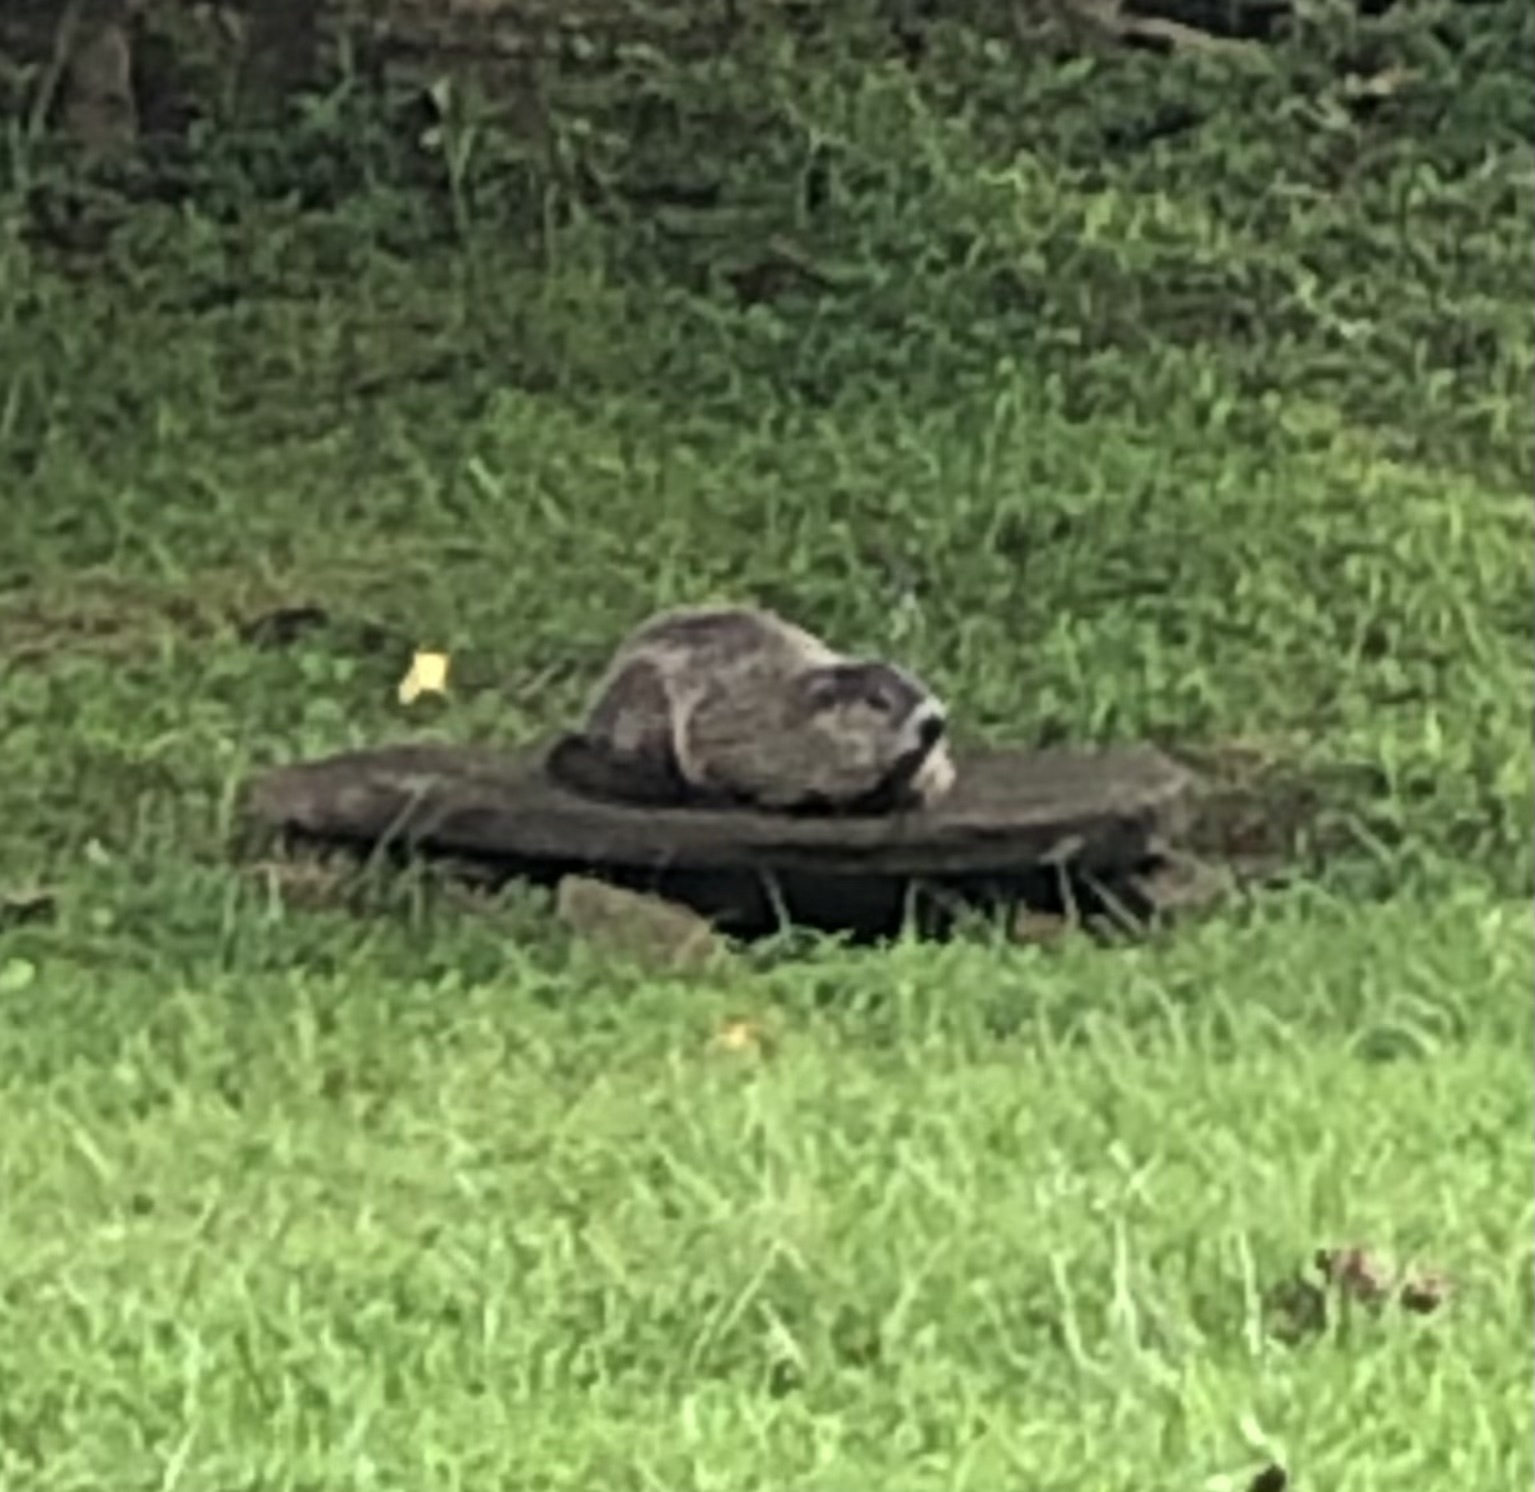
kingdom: Animalia
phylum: Chordata
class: Mammalia
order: Rodentia
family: Sciuridae
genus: Marmota
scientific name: Marmota monax
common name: Groundhog
